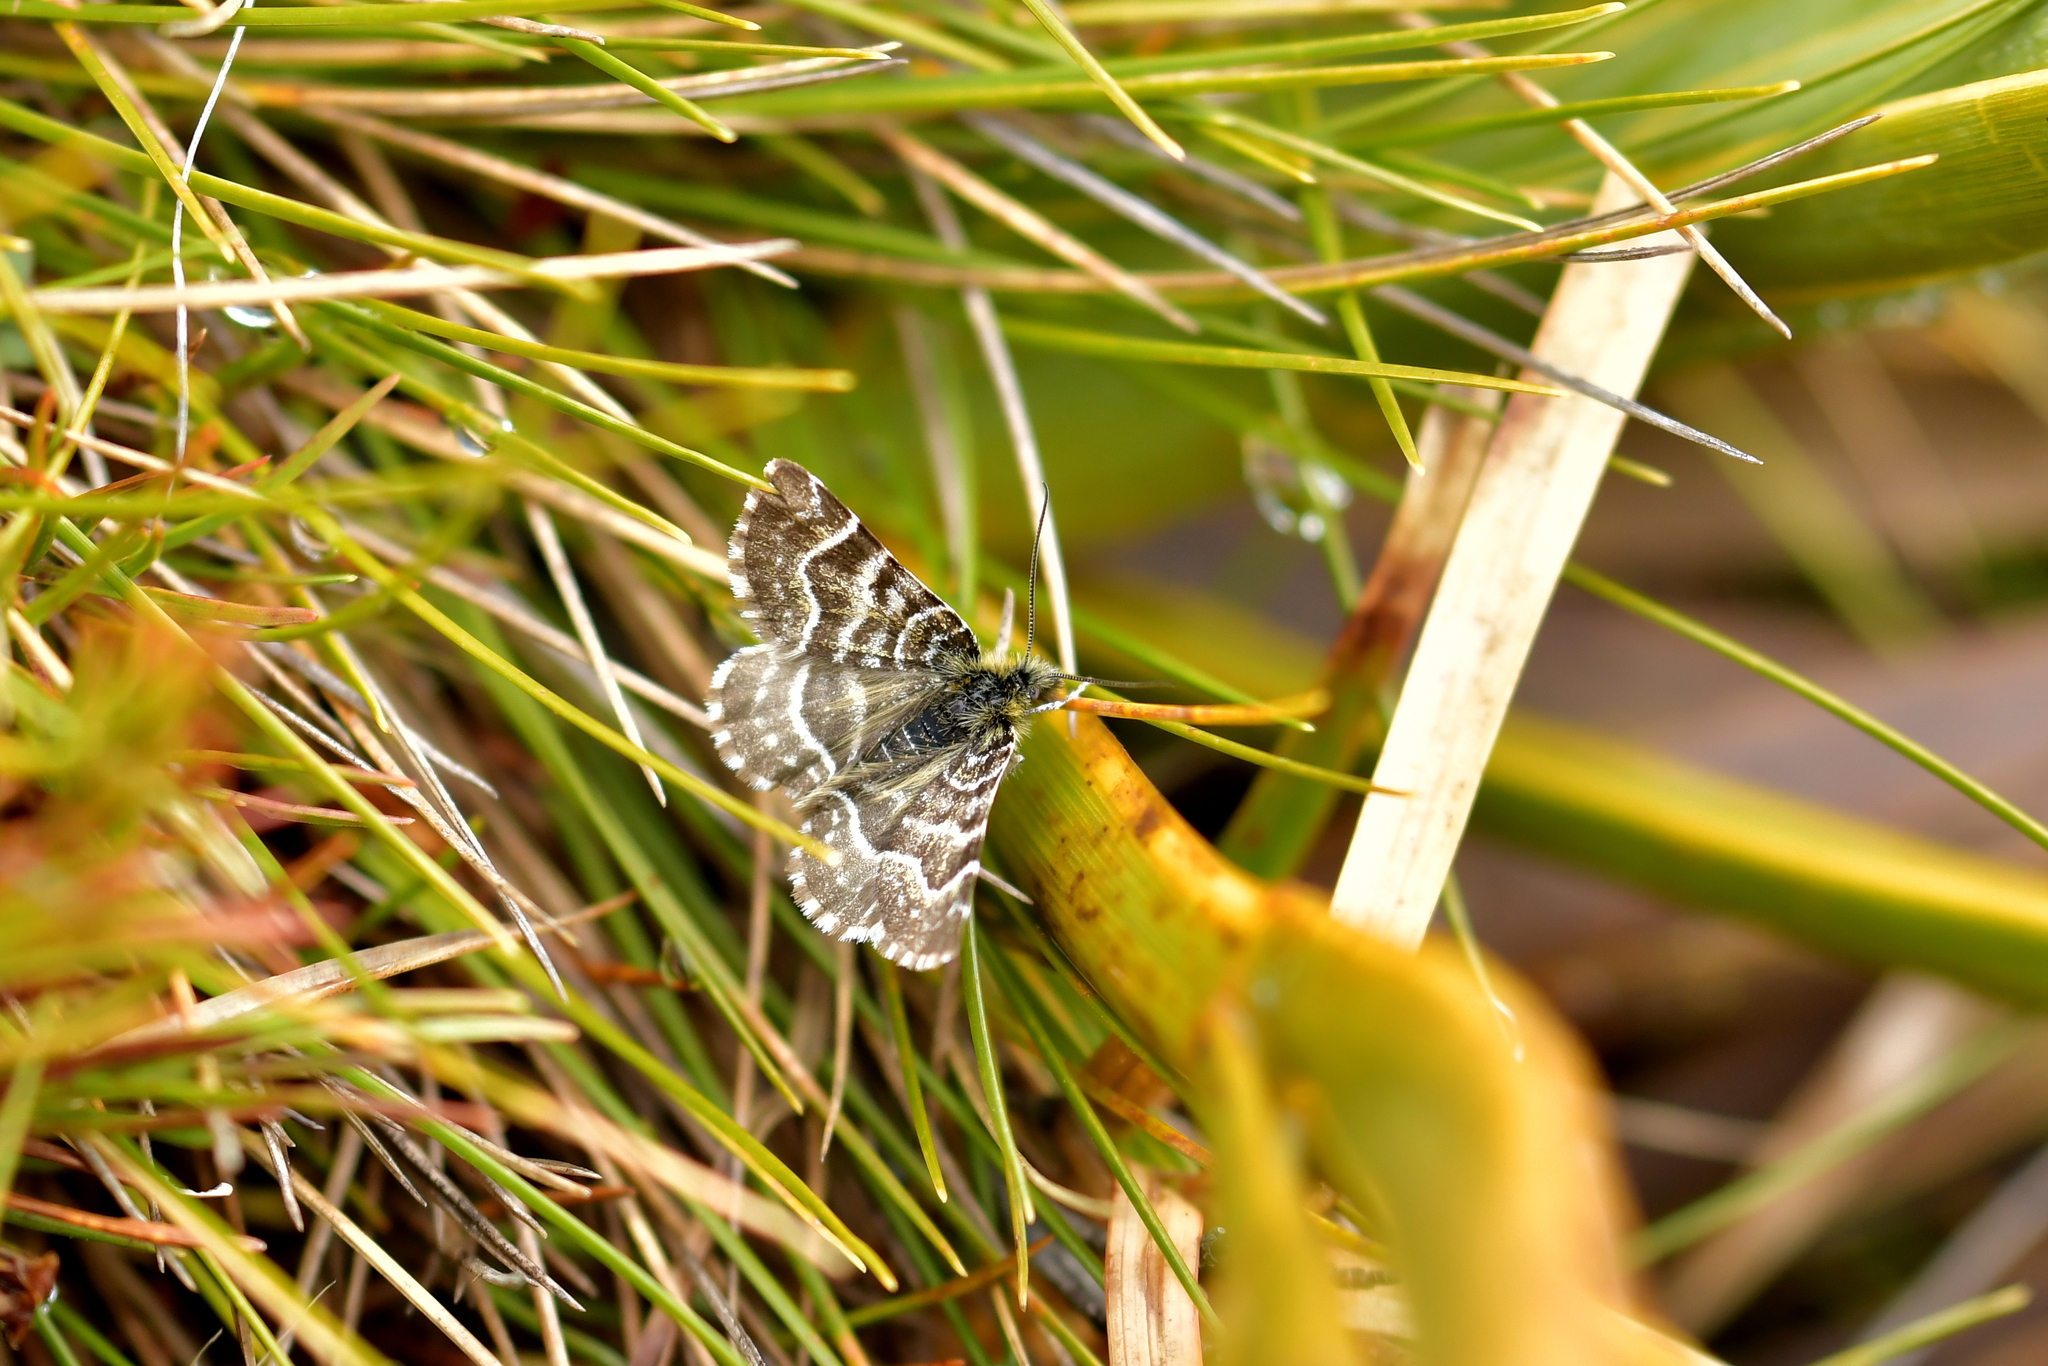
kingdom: Animalia
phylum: Arthropoda
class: Insecta
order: Lepidoptera
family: Geometridae
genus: Dasyuris
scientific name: Dasyuris leucobathra
